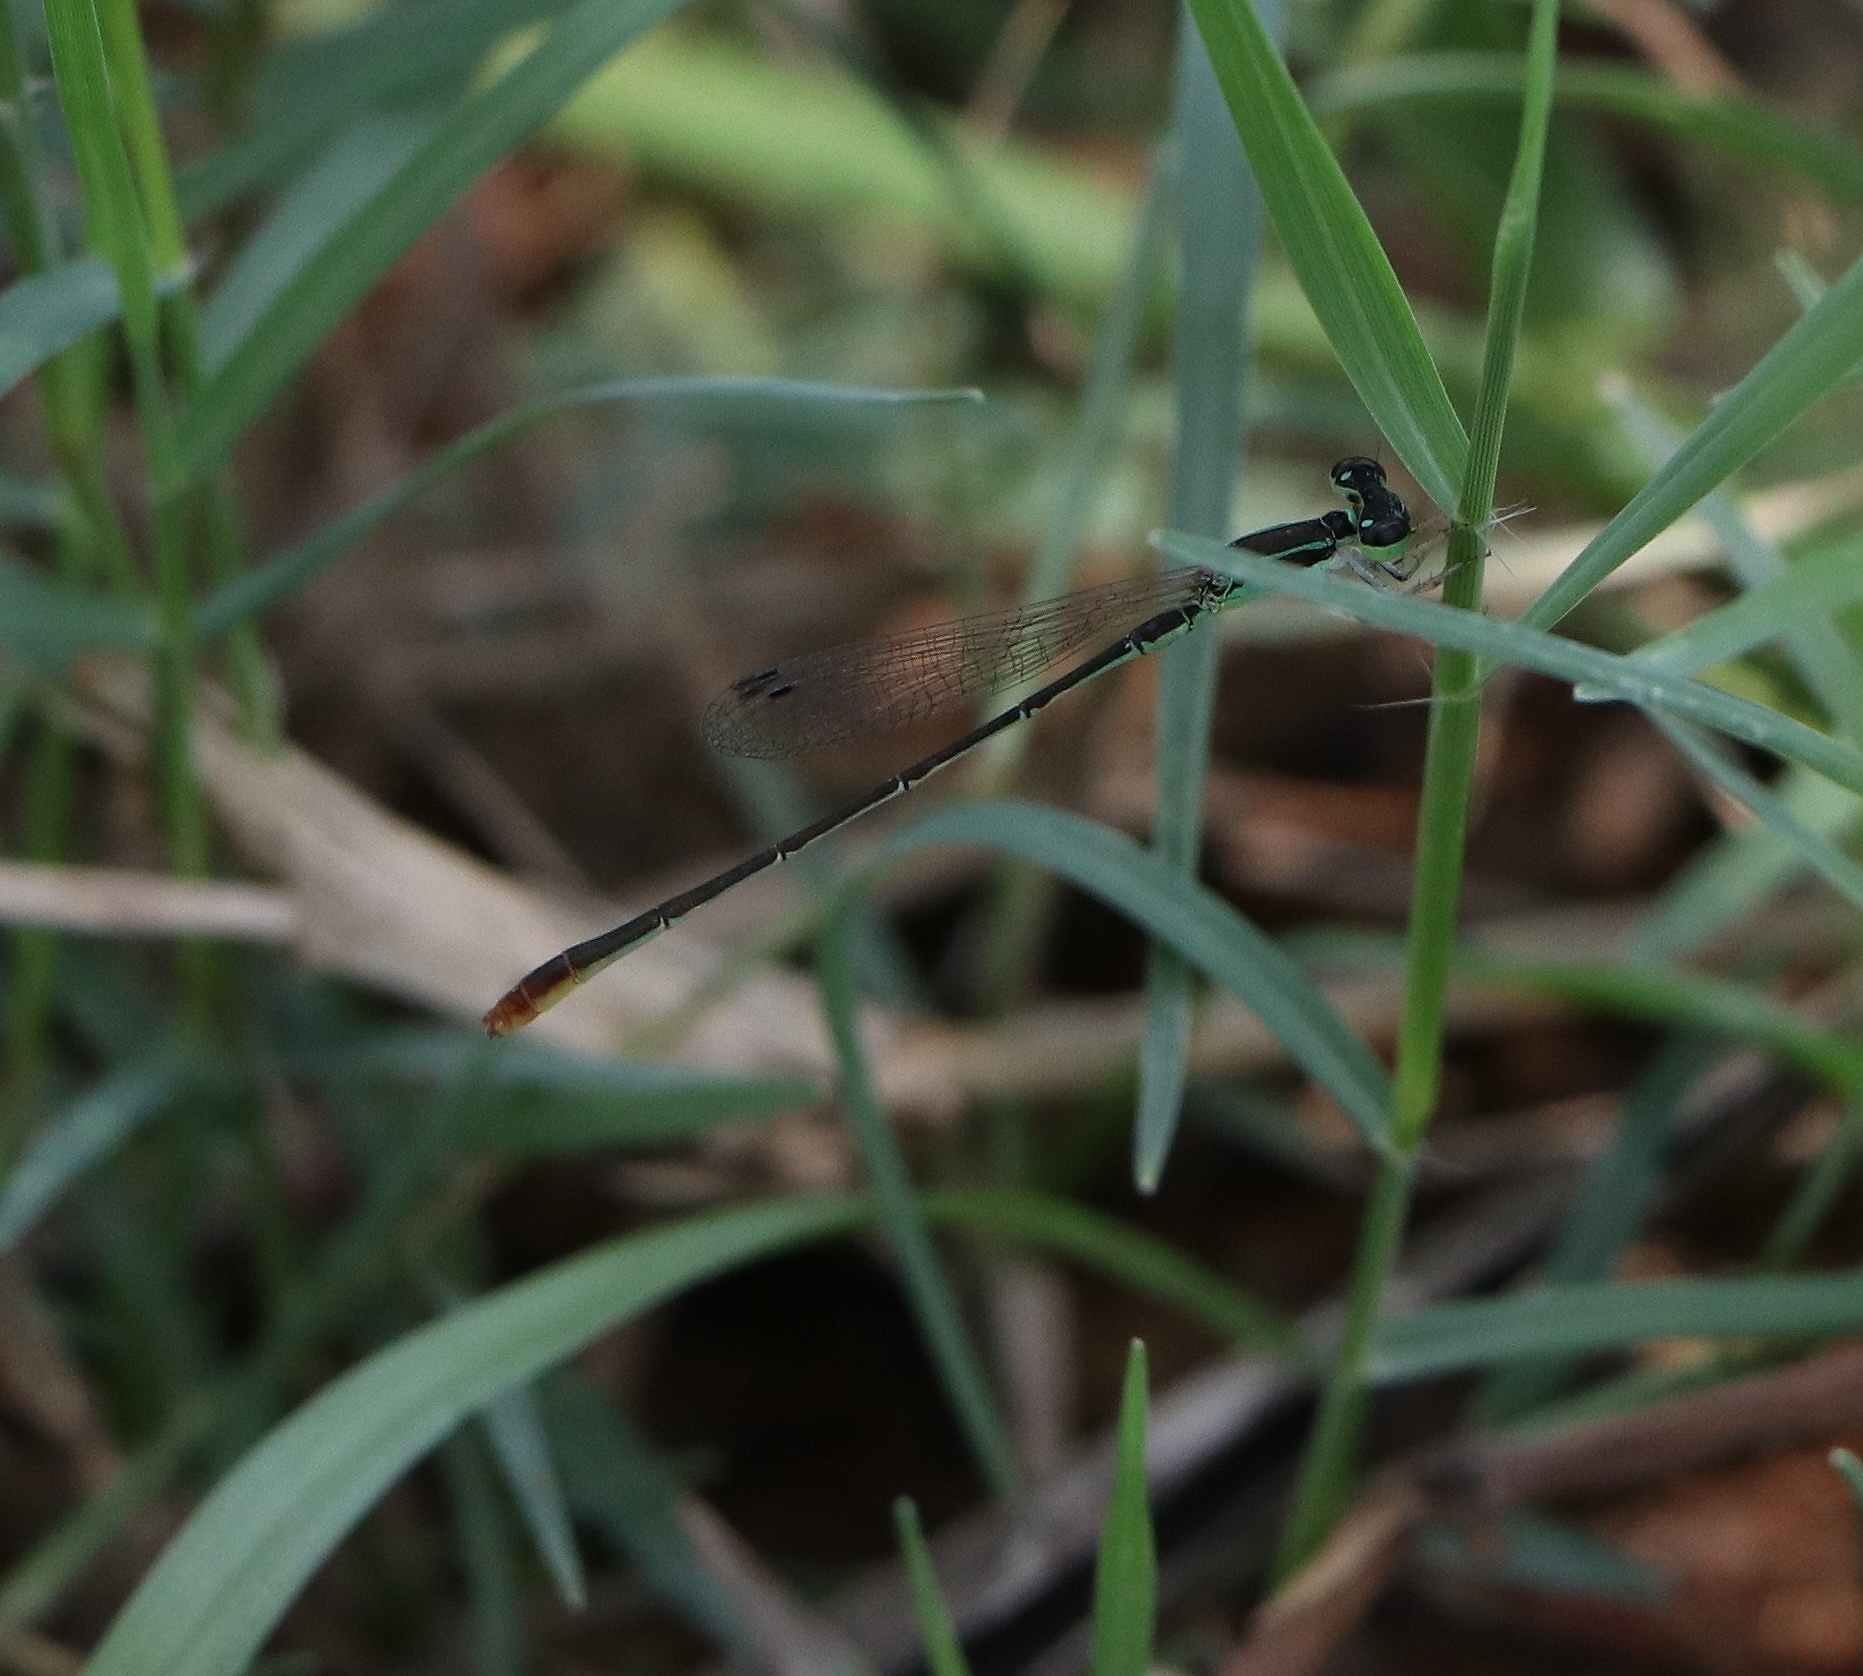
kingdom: Animalia
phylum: Arthropoda
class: Insecta
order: Odonata
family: Coenagrionidae
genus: Agriocnemis
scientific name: Agriocnemis pygmaea
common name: Pygmy wisp
